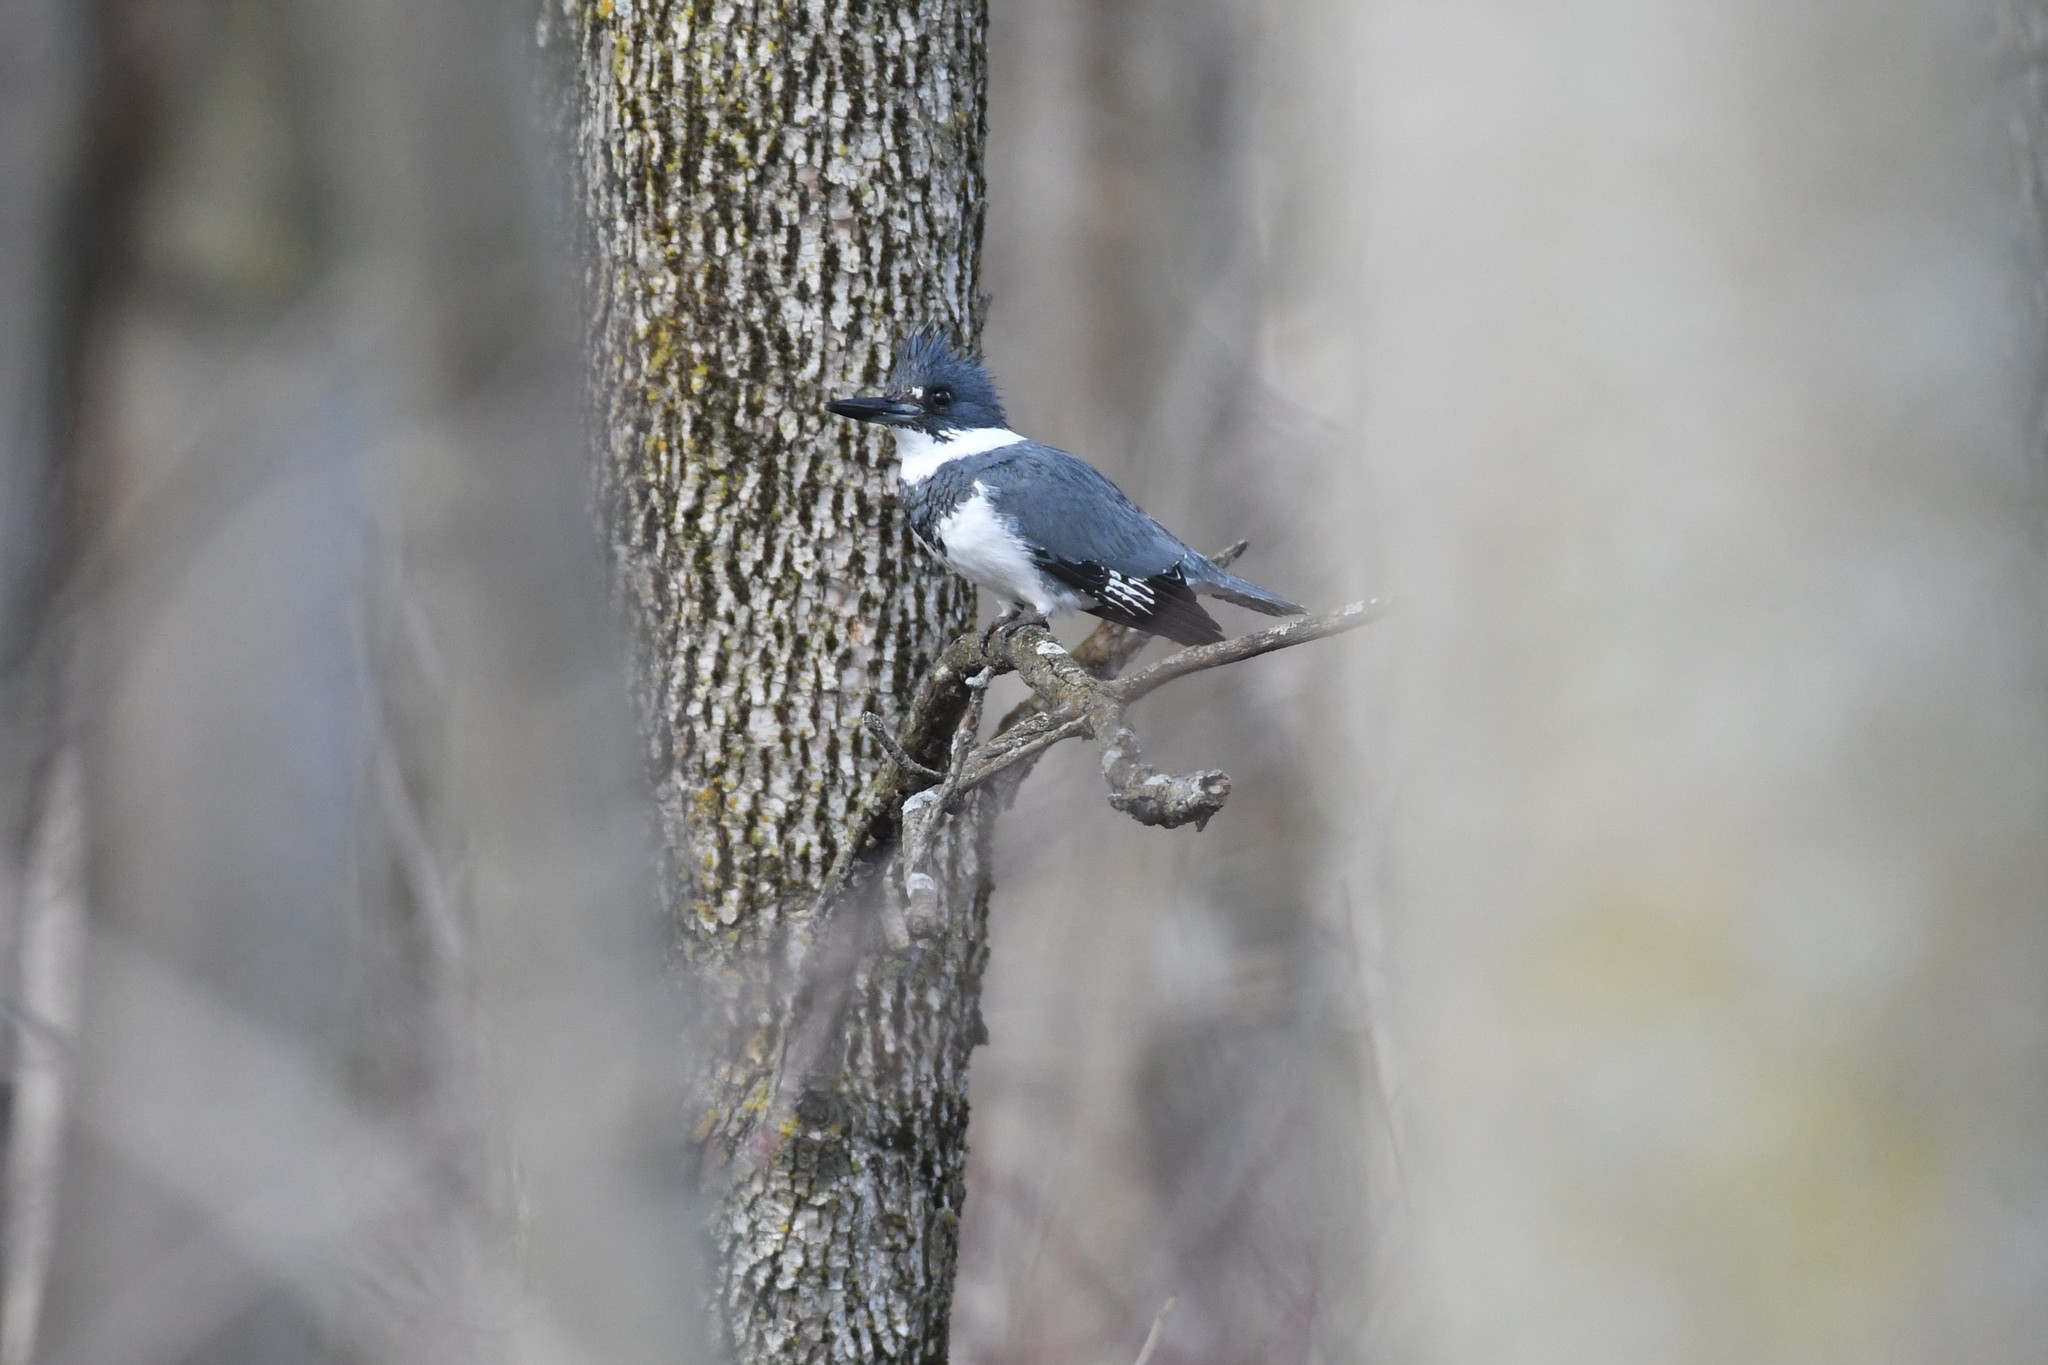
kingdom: Animalia
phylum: Chordata
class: Aves
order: Coraciiformes
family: Alcedinidae
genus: Megaceryle
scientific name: Megaceryle alcyon
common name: Belted kingfisher
